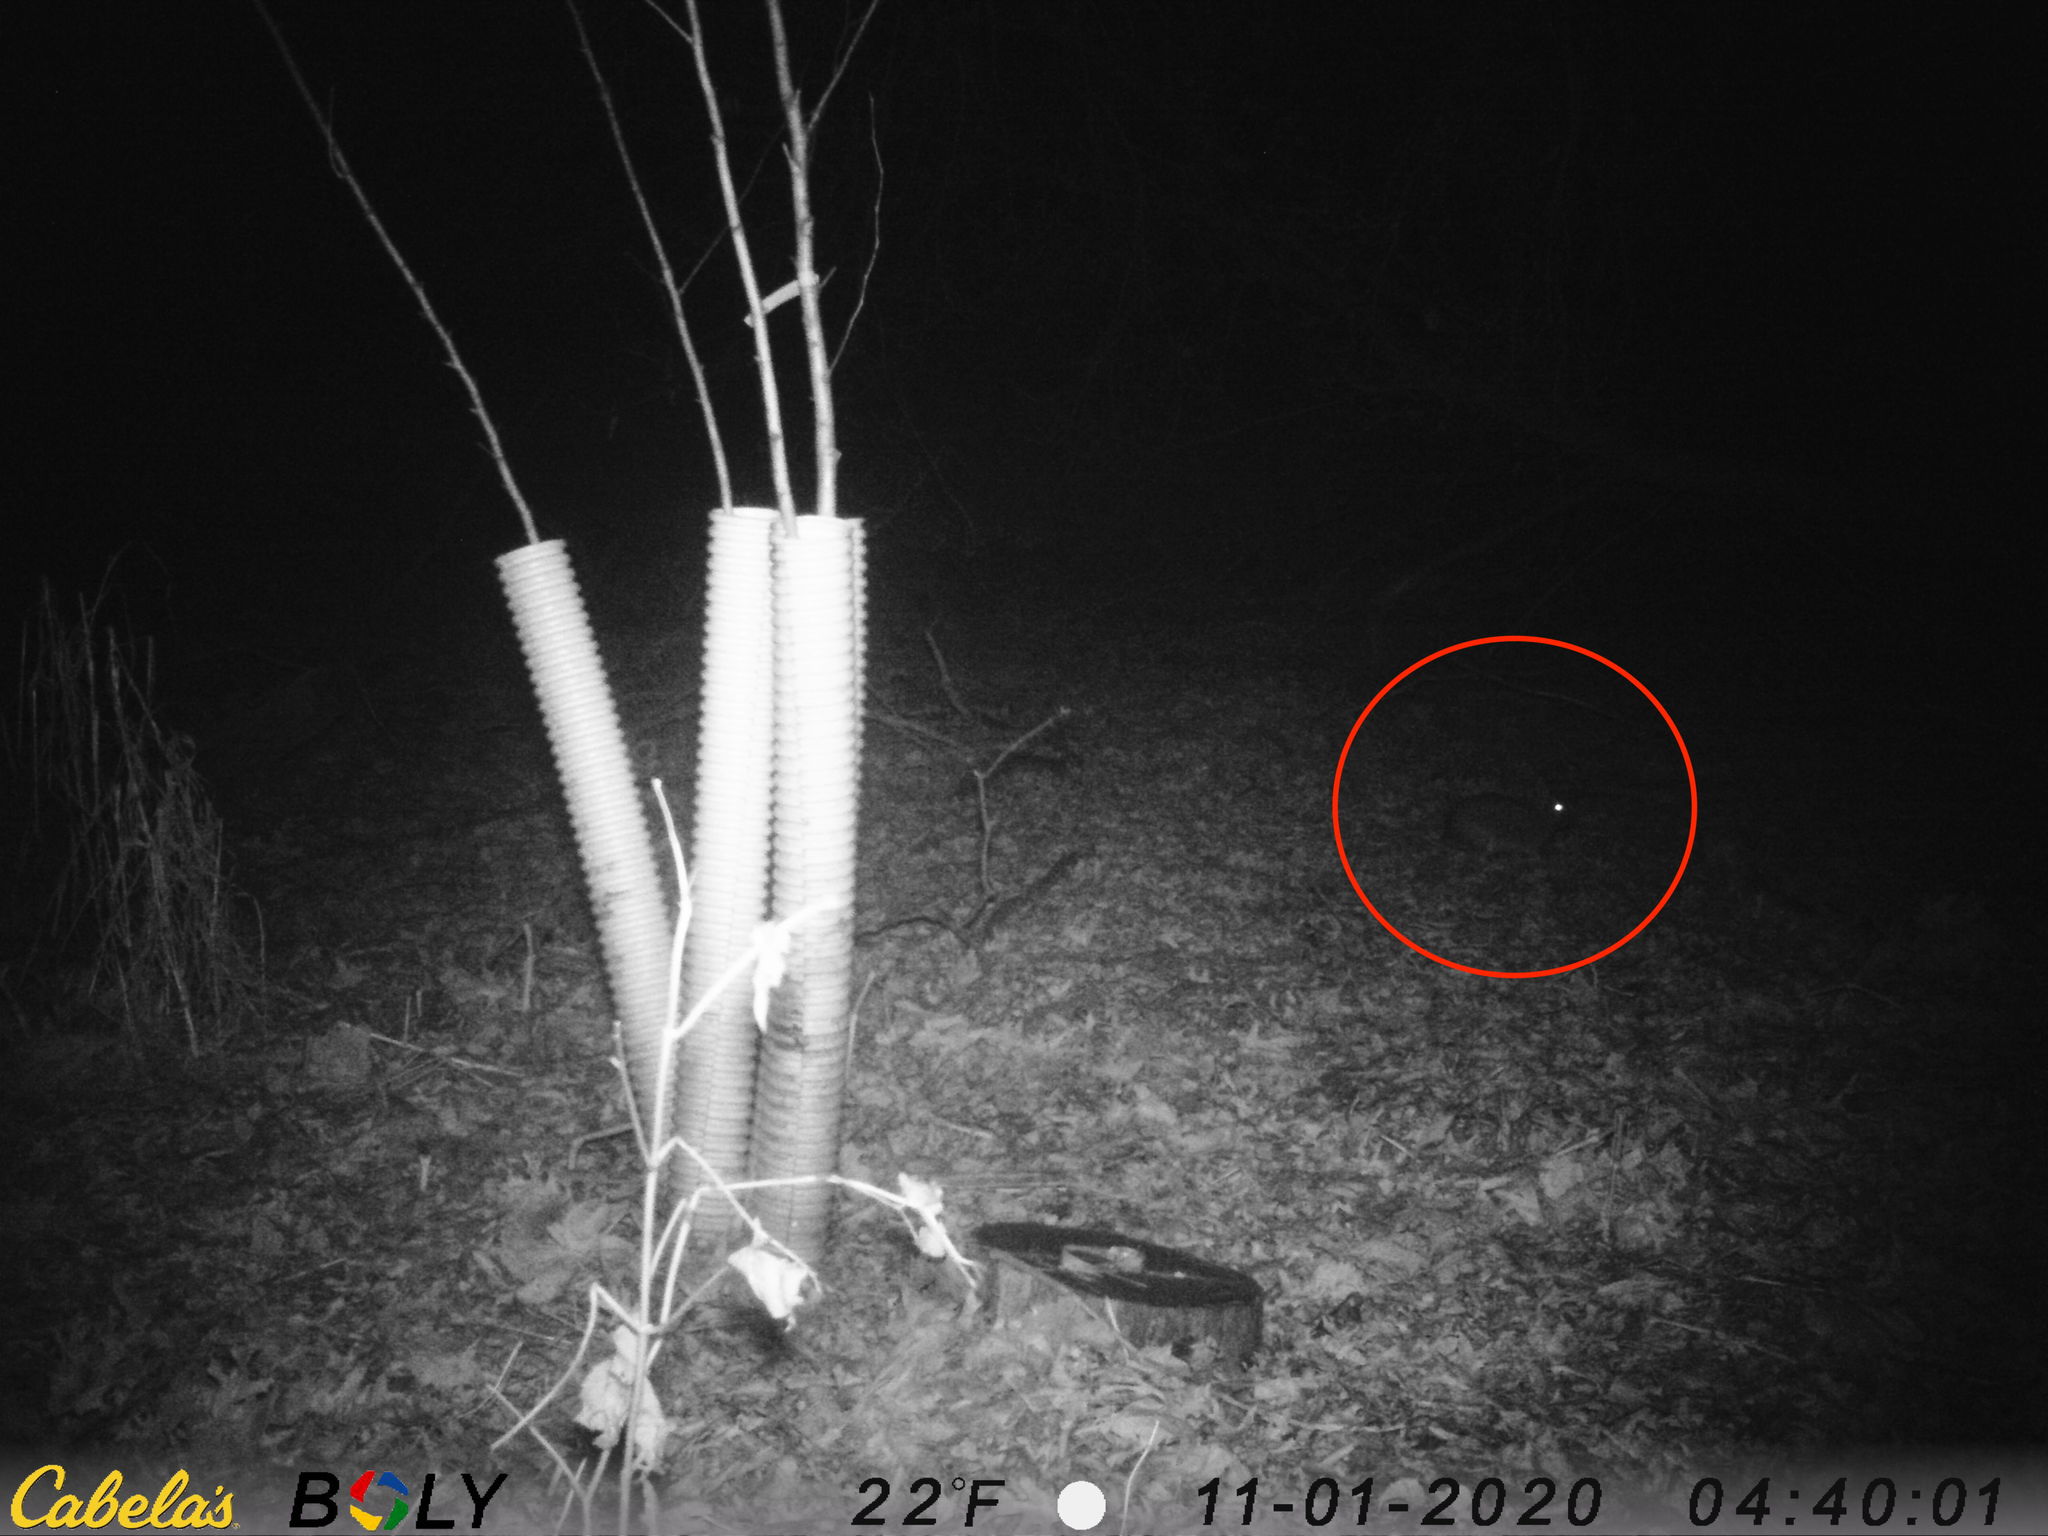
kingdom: Animalia
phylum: Chordata
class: Mammalia
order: Lagomorpha
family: Leporidae
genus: Sylvilagus
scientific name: Sylvilagus floridanus
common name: Eastern cottontail
